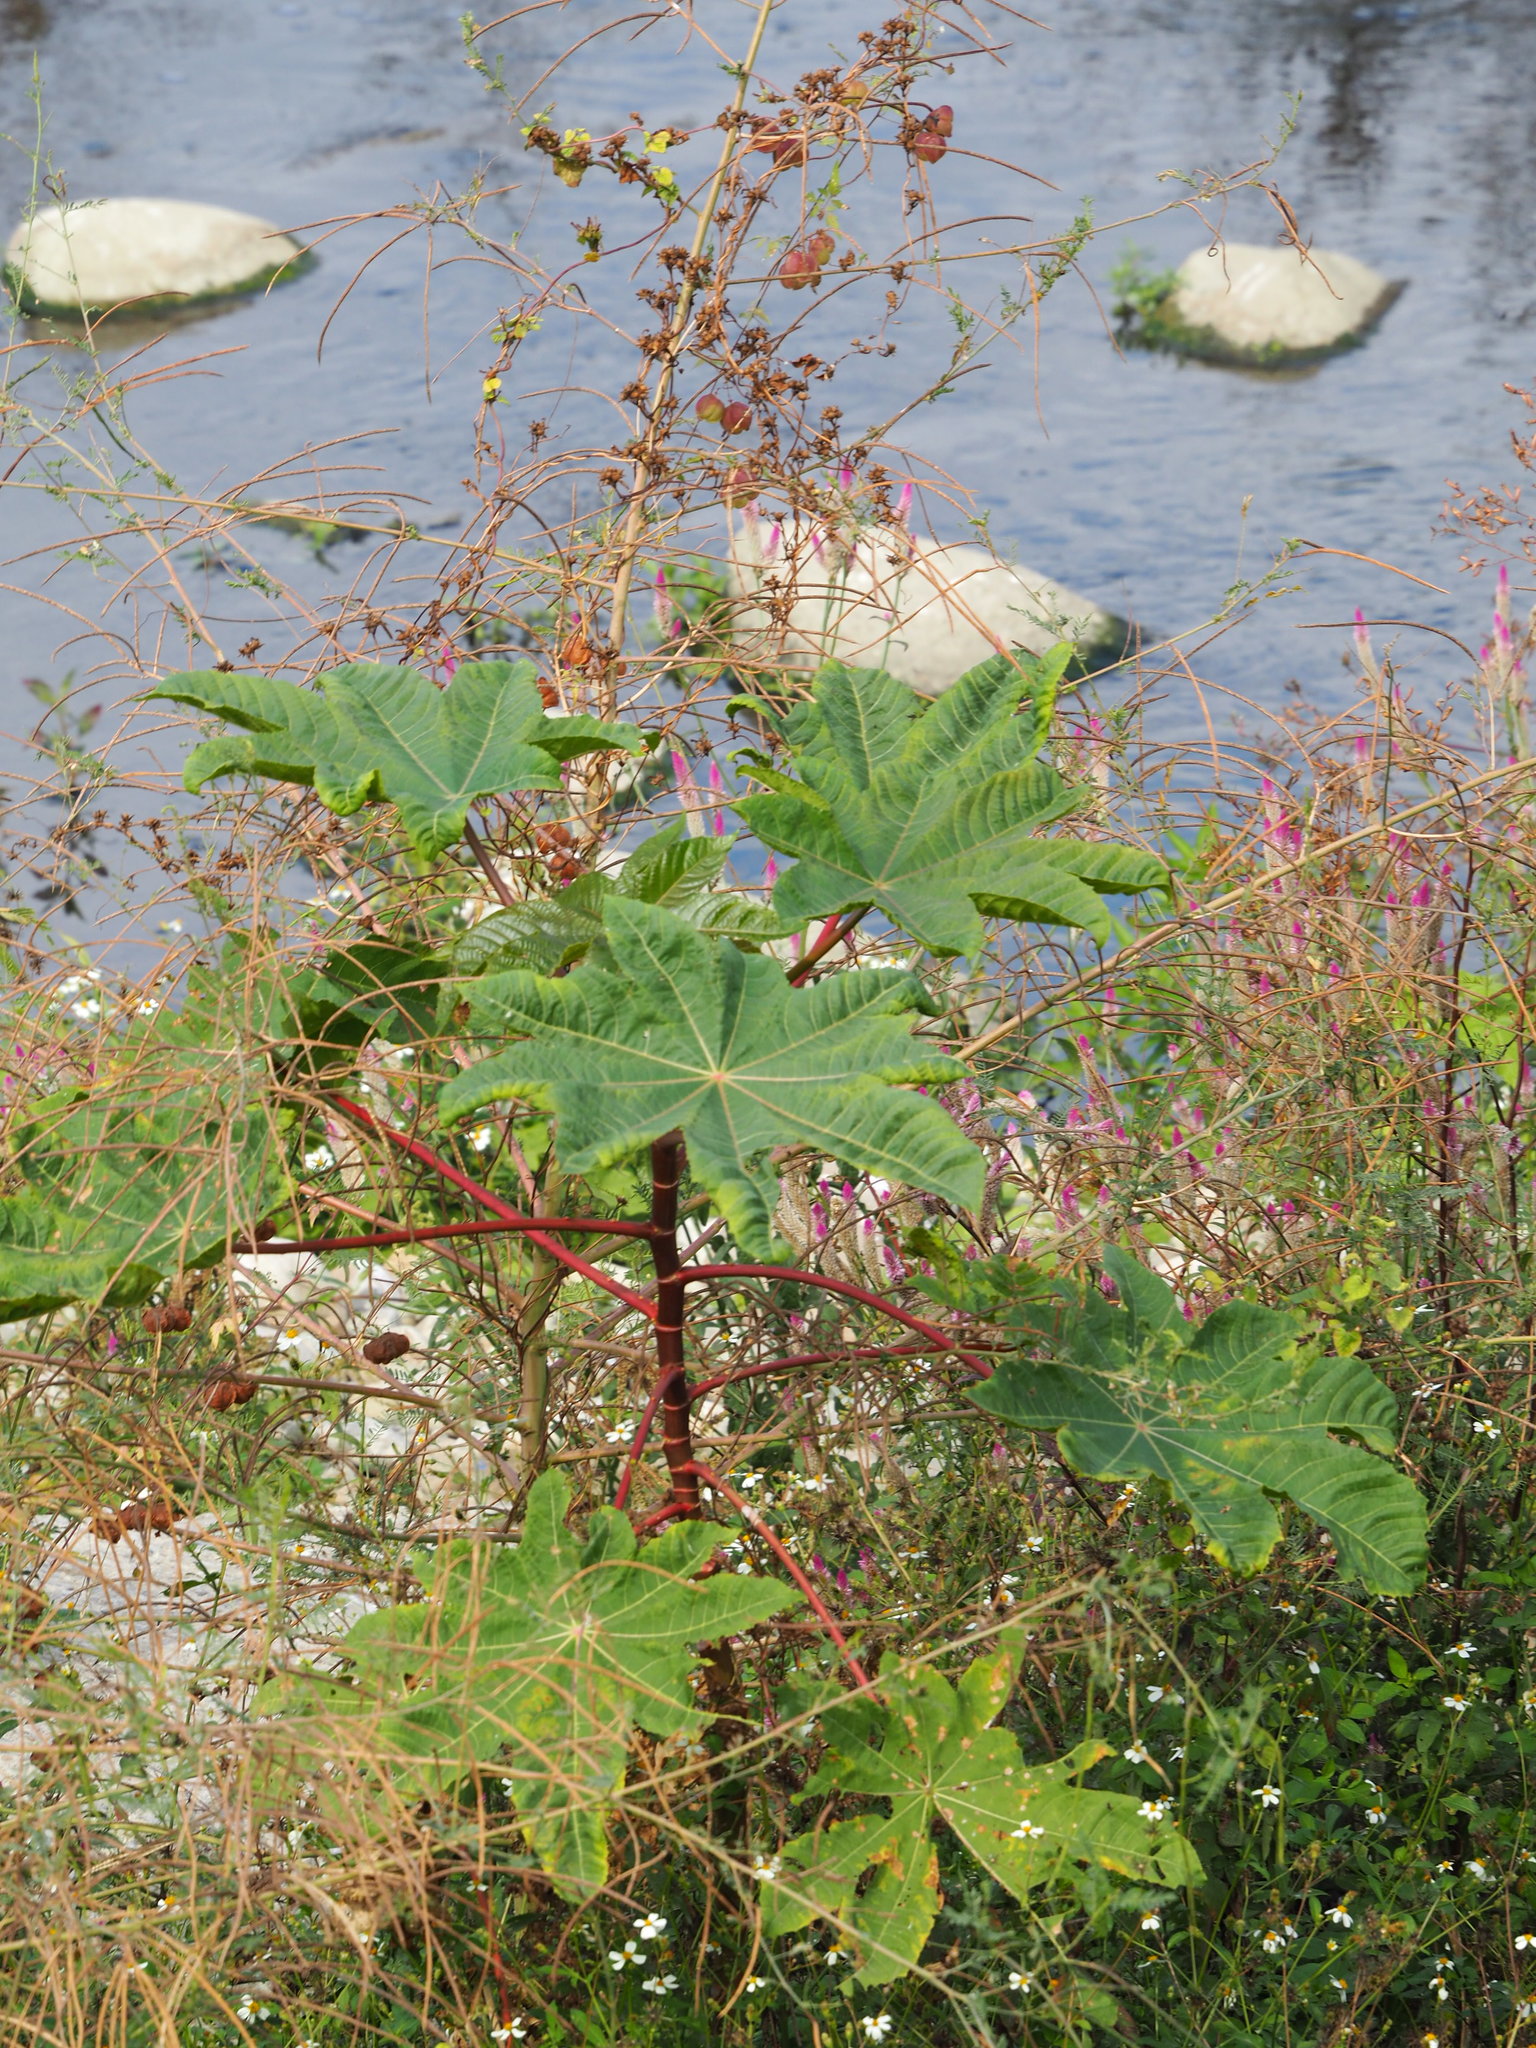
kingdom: Plantae
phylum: Tracheophyta
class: Magnoliopsida
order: Malpighiales
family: Euphorbiaceae
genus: Ricinus
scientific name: Ricinus communis
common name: Castor-oil-plant
